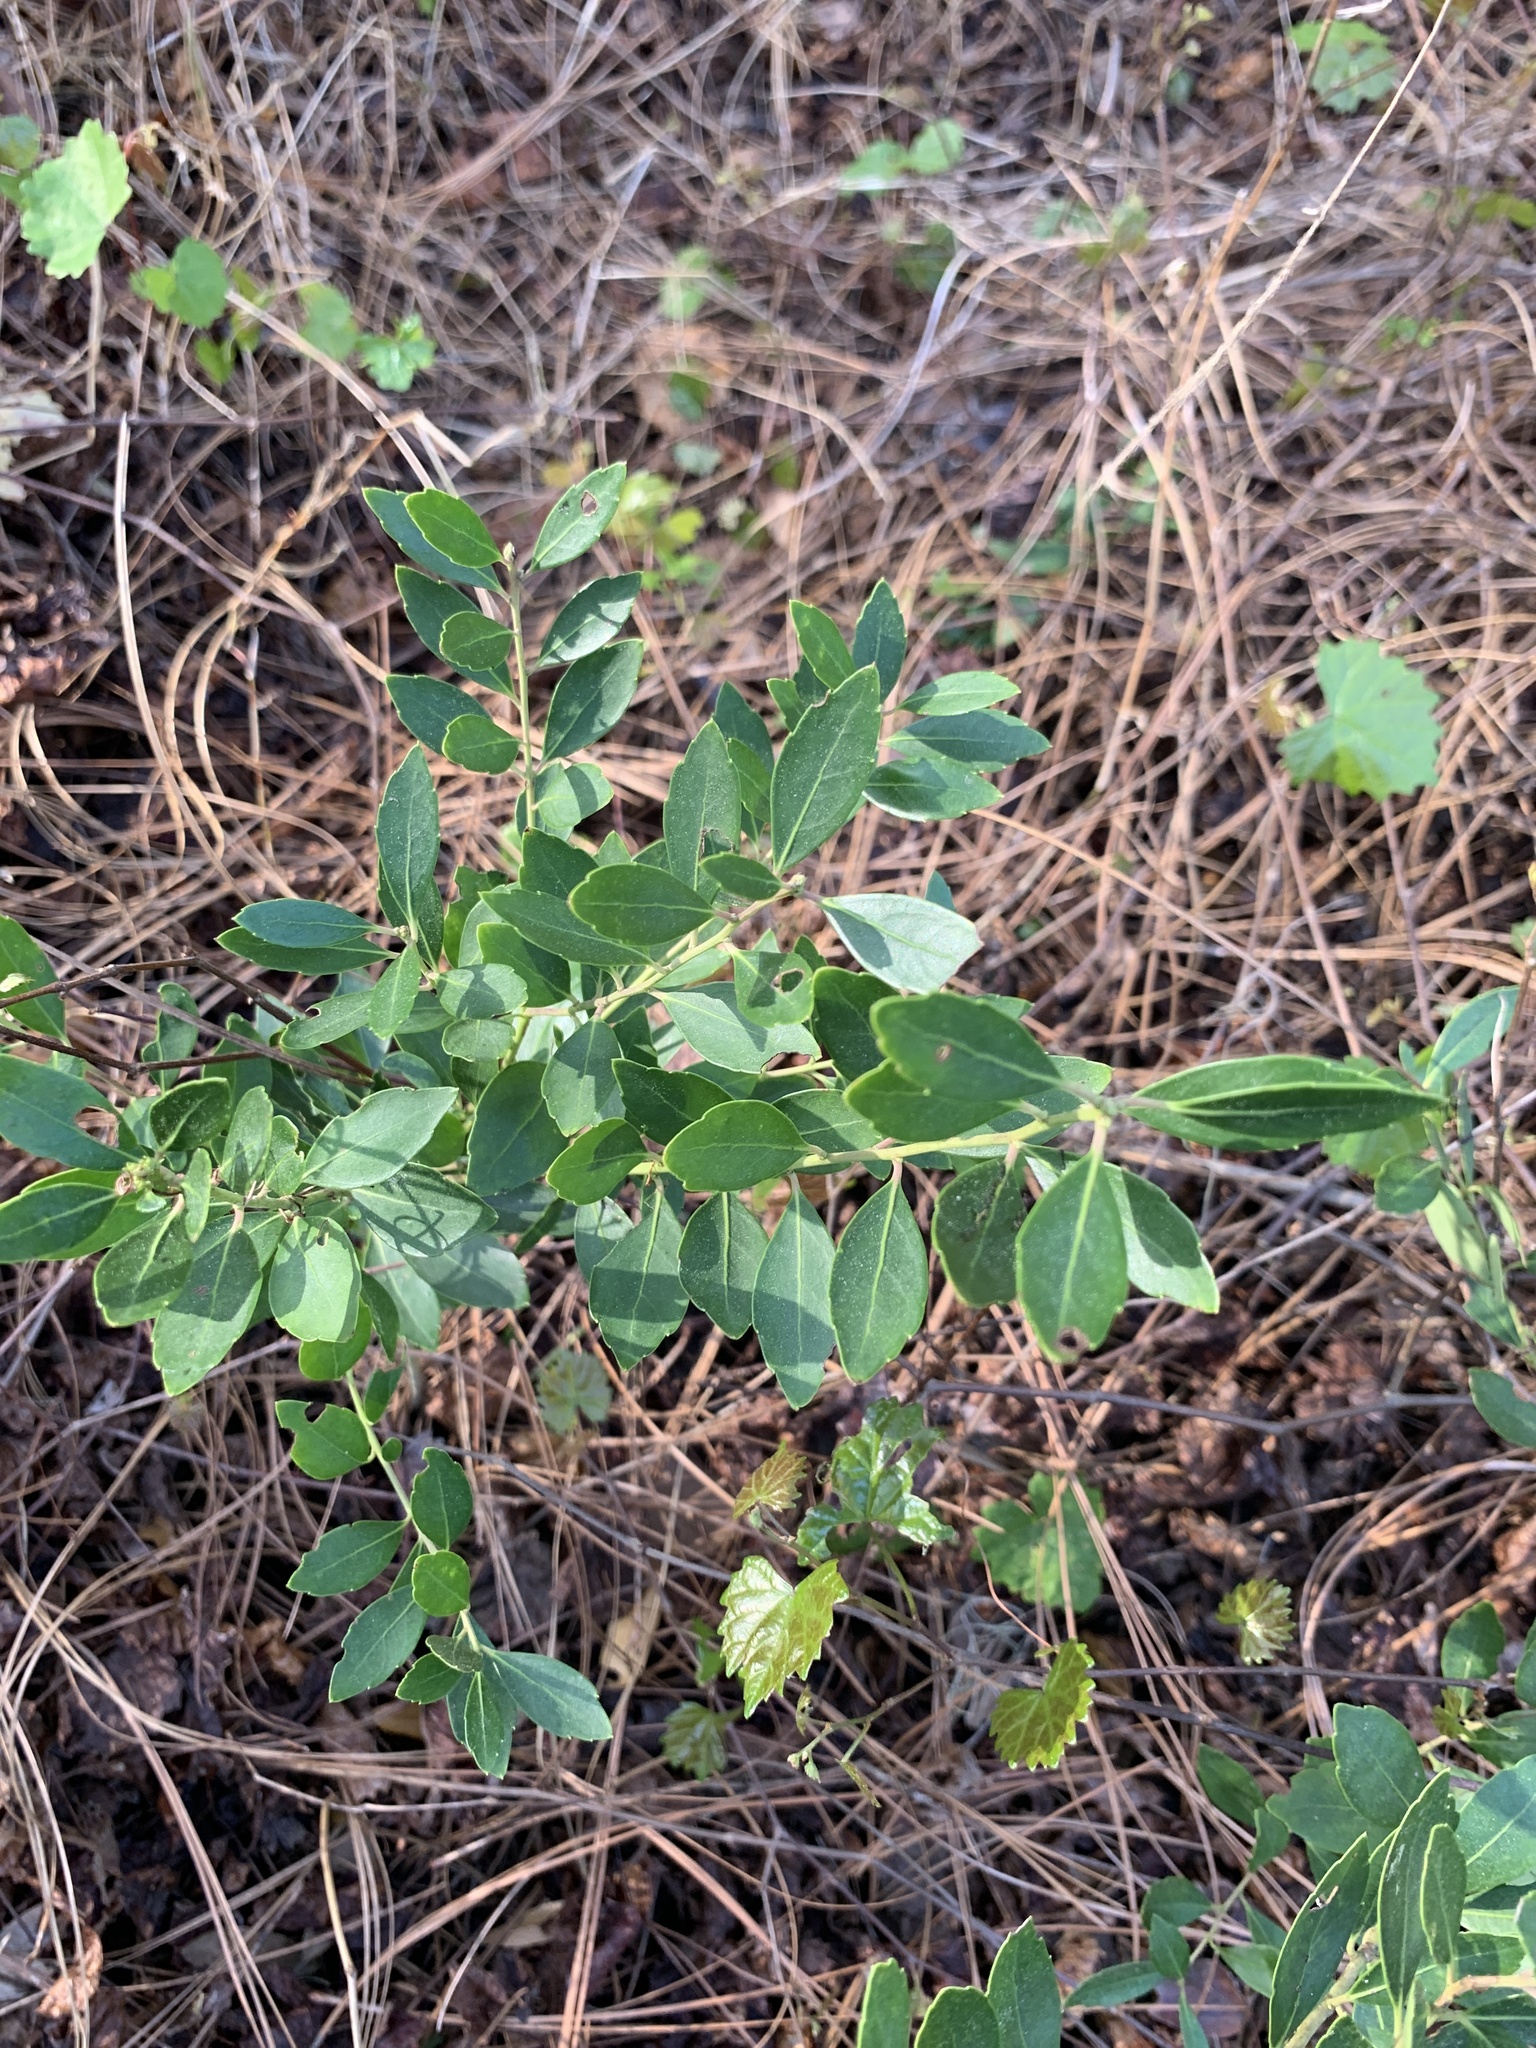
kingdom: Plantae
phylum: Tracheophyta
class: Magnoliopsida
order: Aquifoliales
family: Aquifoliaceae
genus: Ilex
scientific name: Ilex glabra
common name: Bitter gallberry
